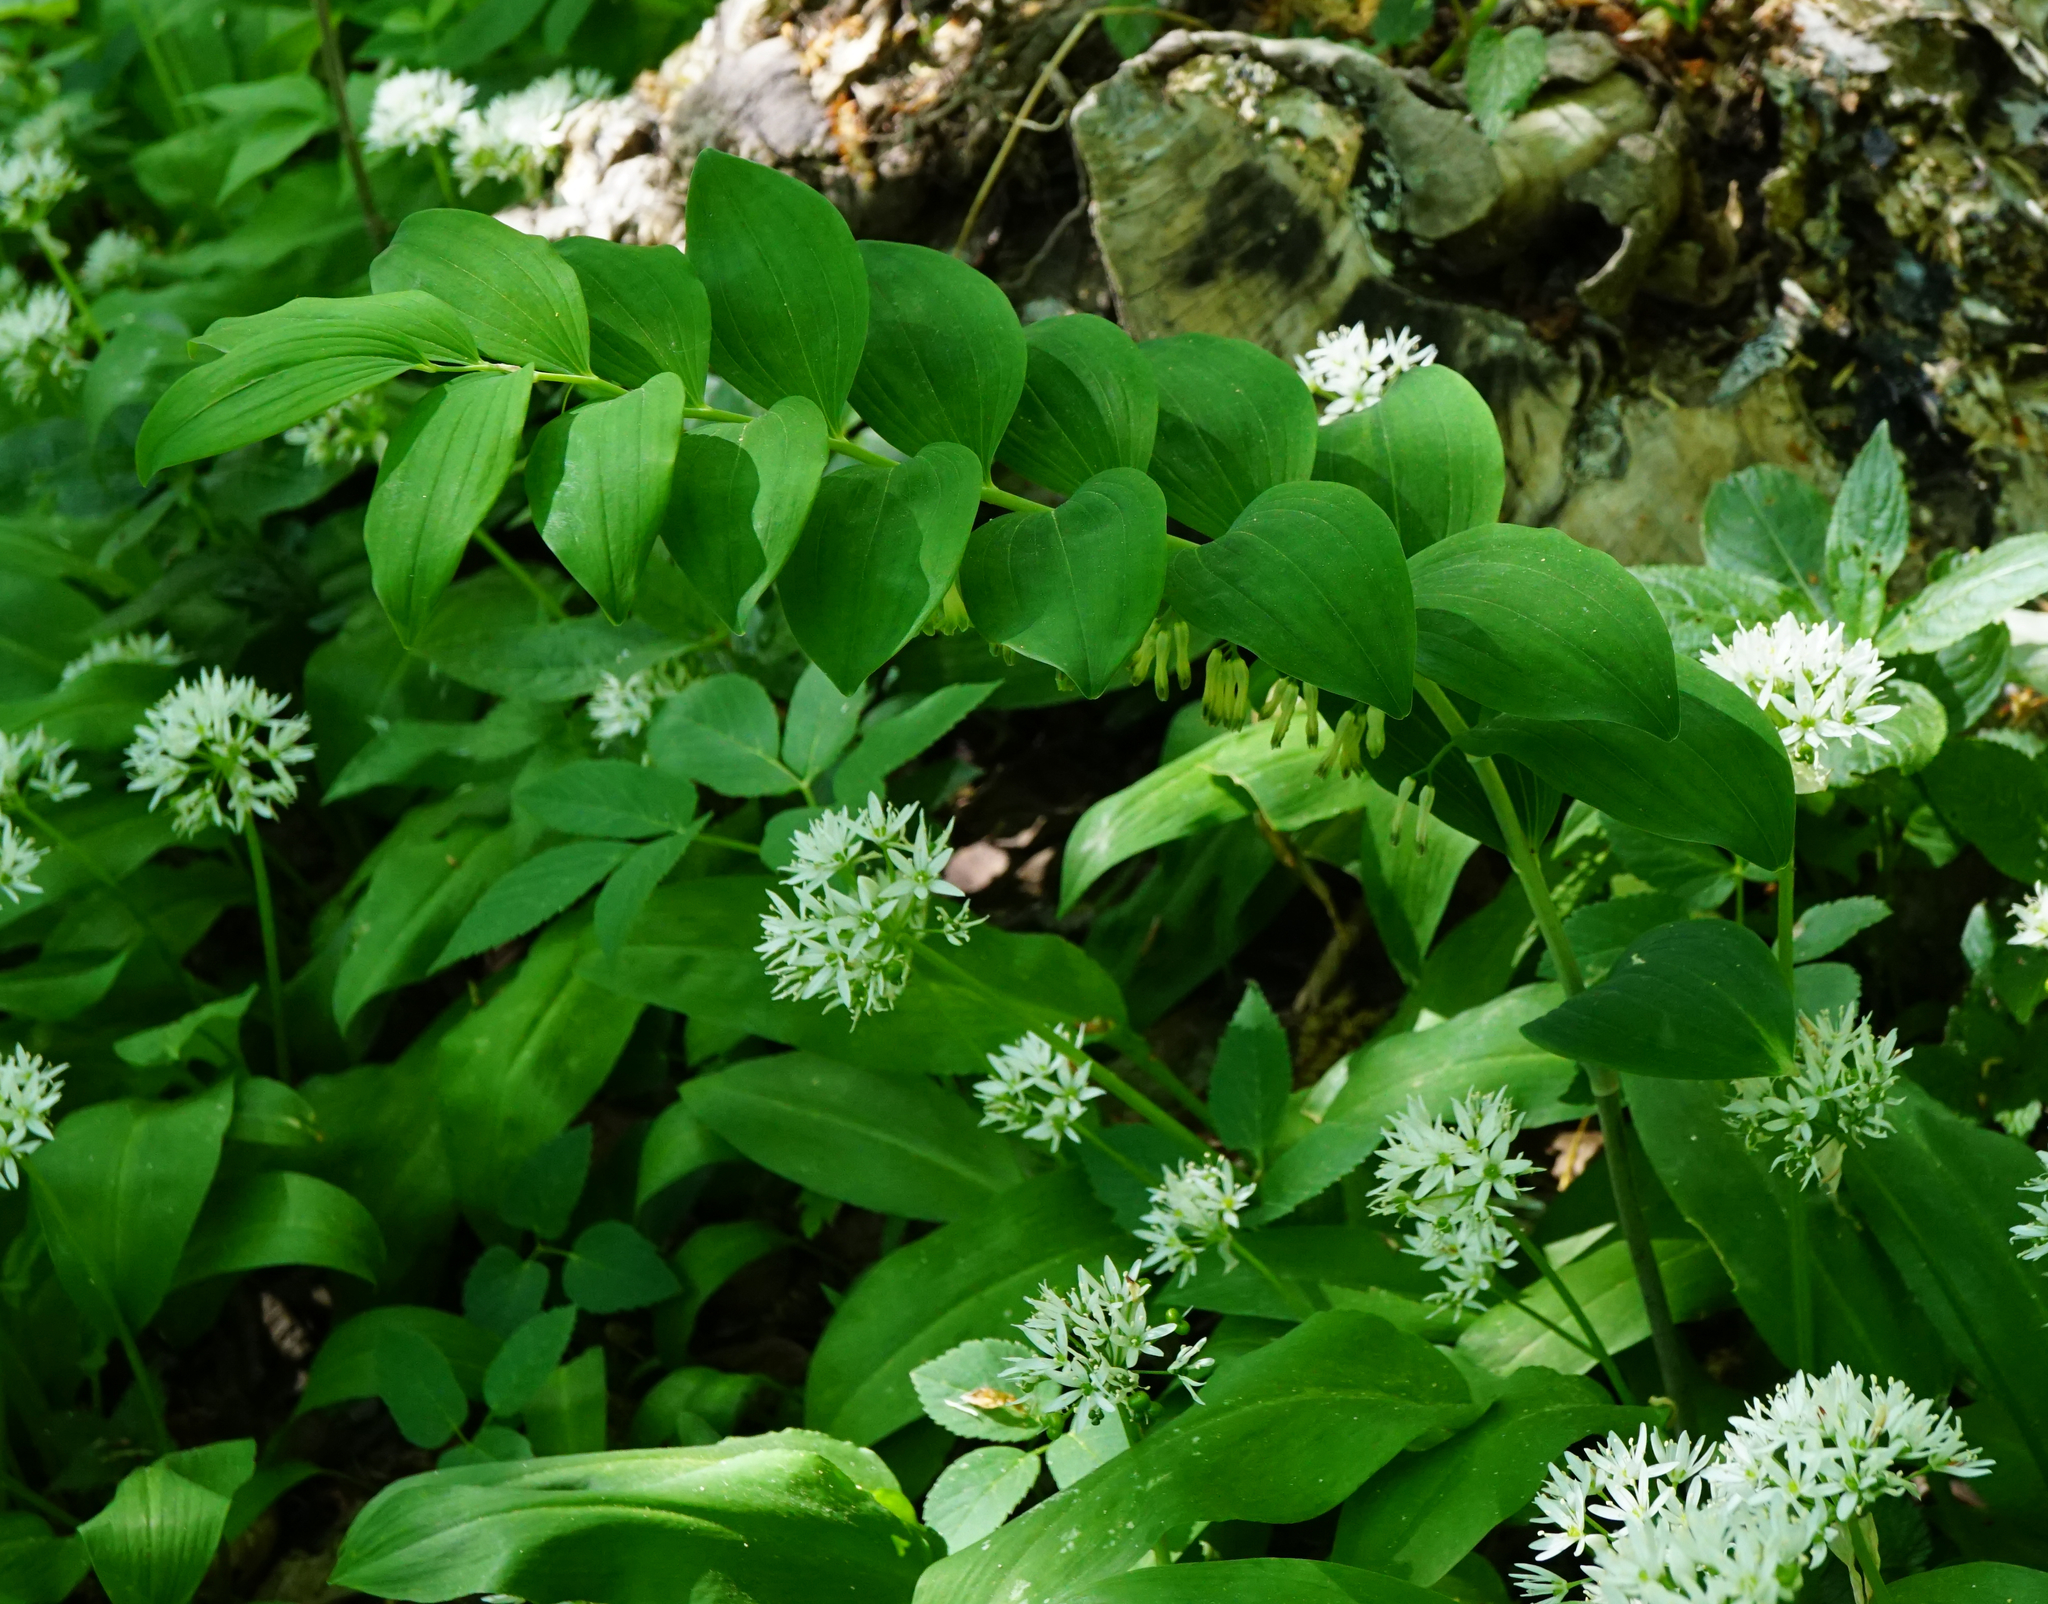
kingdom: Plantae
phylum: Tracheophyta
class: Liliopsida
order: Asparagales
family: Asparagaceae
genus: Polygonatum
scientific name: Polygonatum multiflorum
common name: Solomon's-seal
